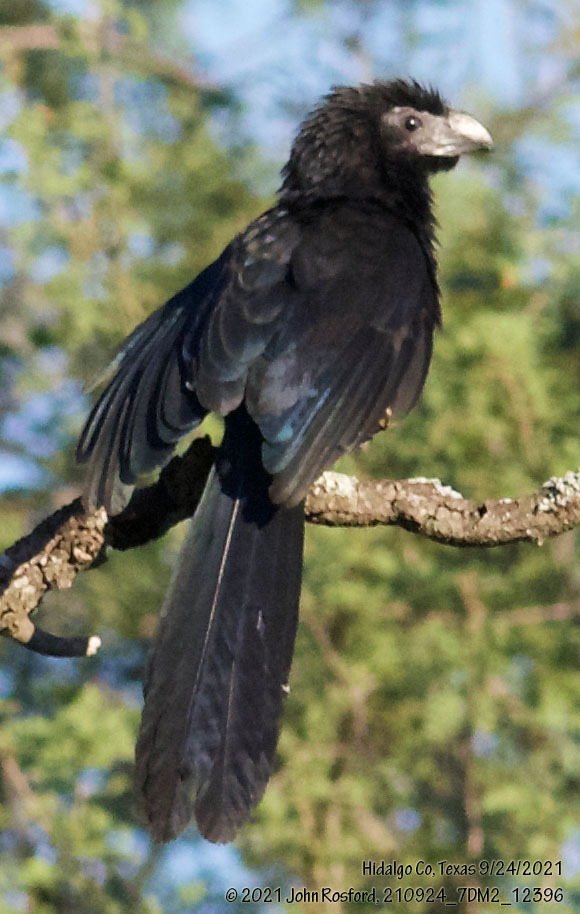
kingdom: Animalia
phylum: Chordata
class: Aves
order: Cuculiformes
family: Cuculidae
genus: Crotophaga
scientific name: Crotophaga sulcirostris
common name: Groove-billed ani
